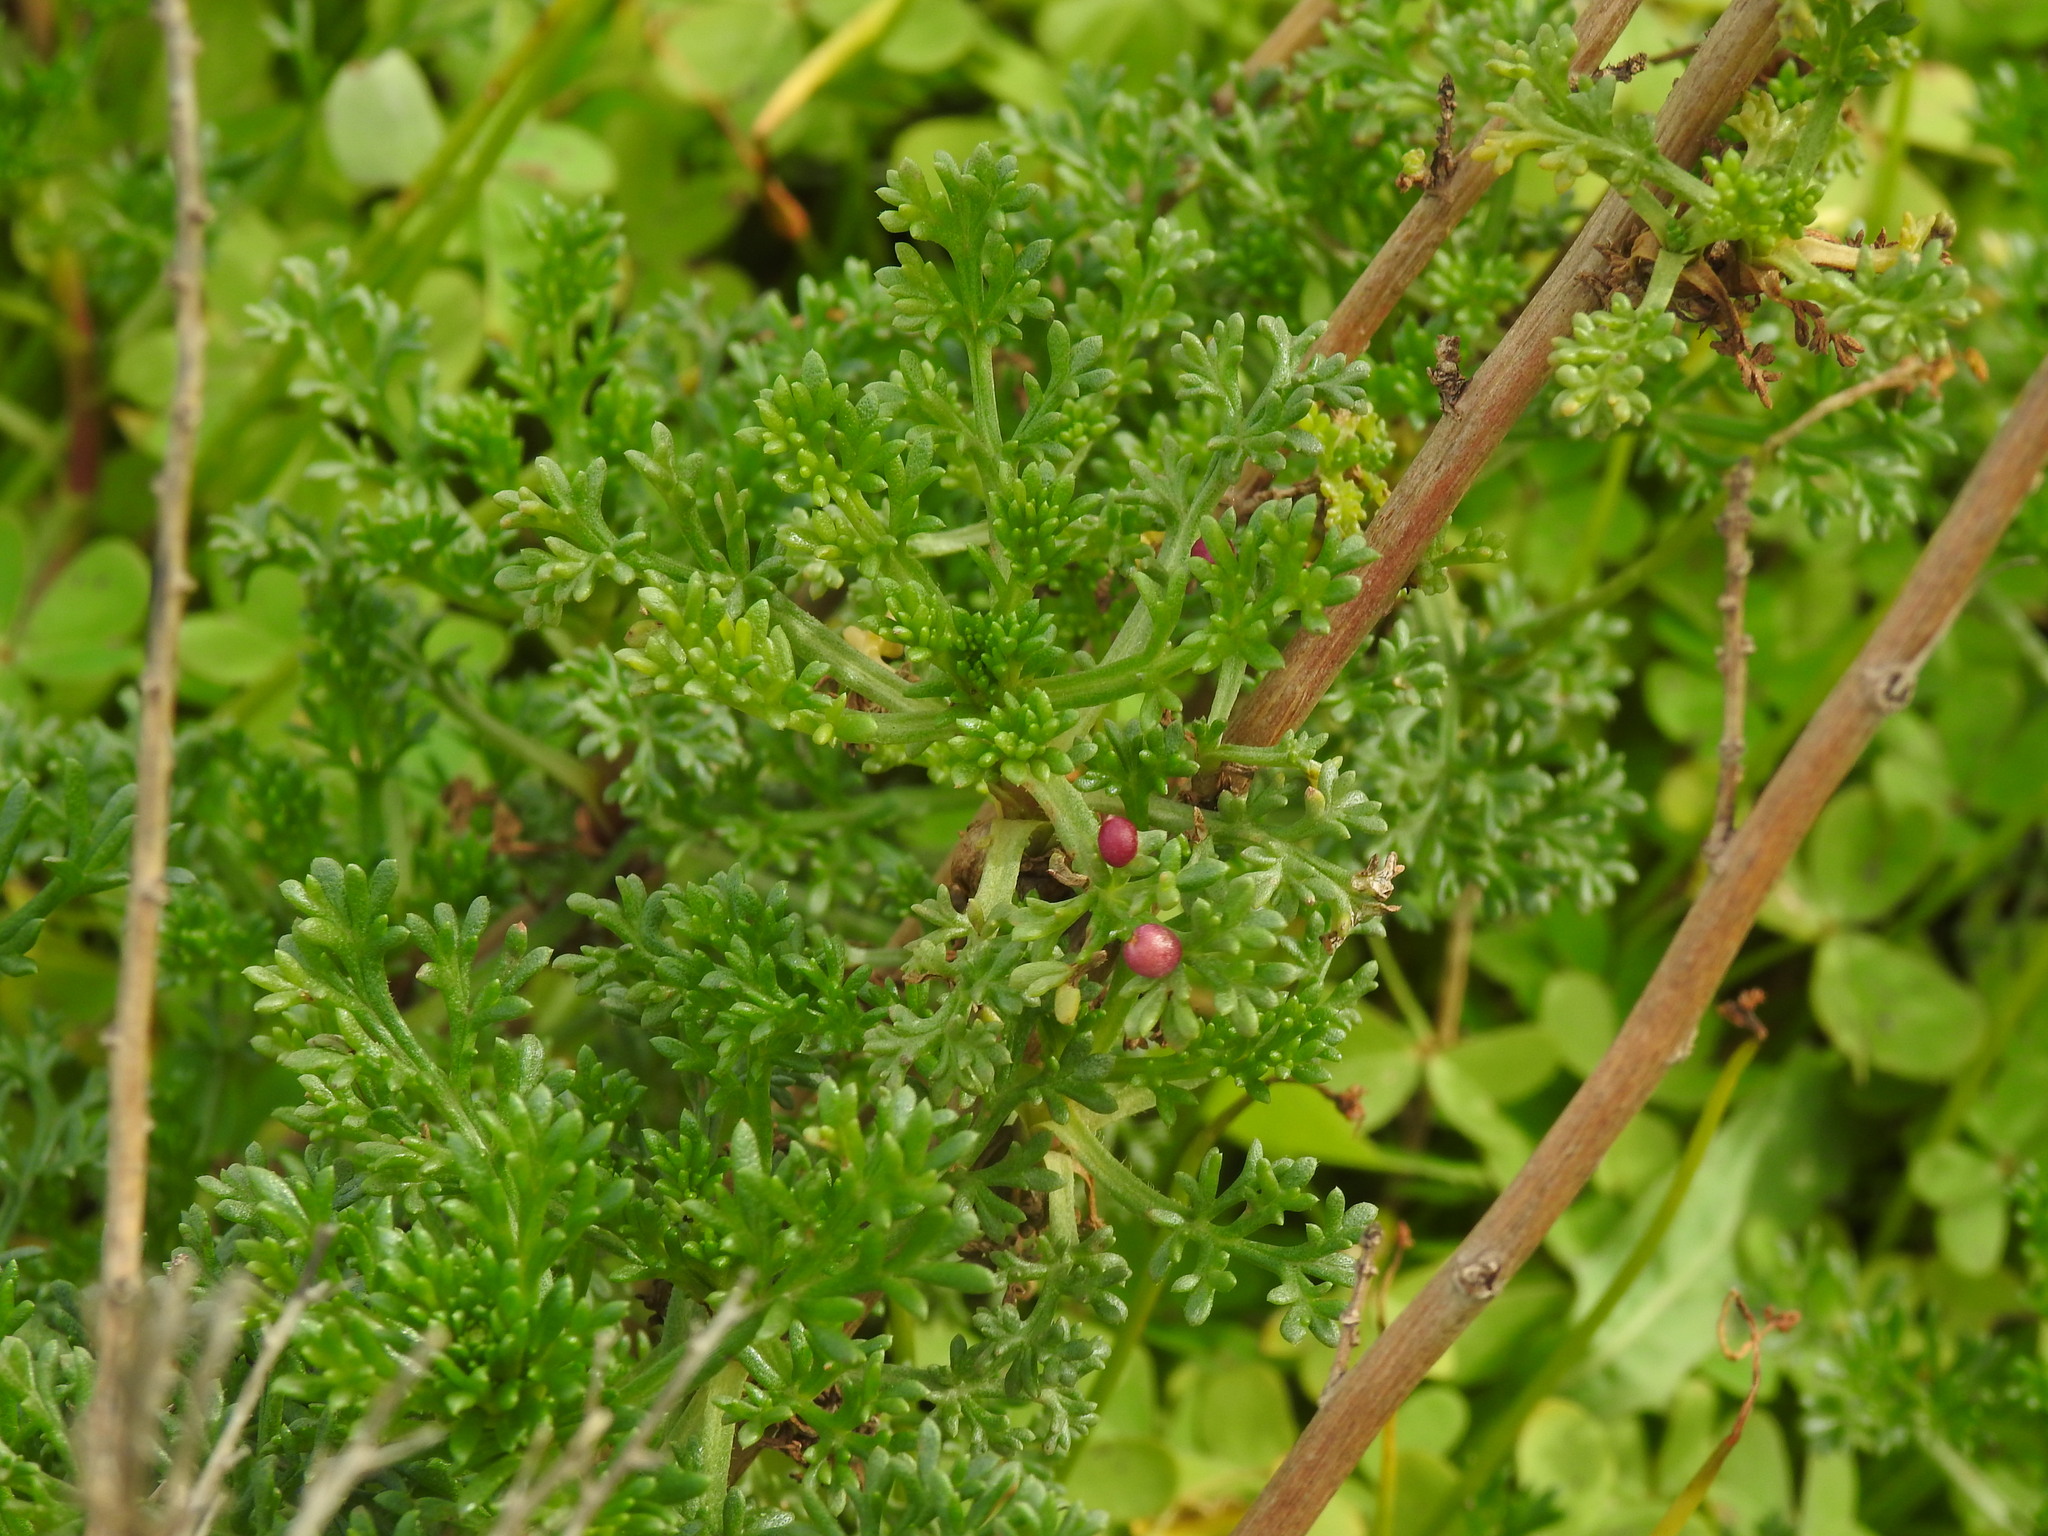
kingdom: Plantae
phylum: Tracheophyta
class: Magnoliopsida
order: Asterales
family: Asteraceae
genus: Artemisia
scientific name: Artemisia crithmifolia
